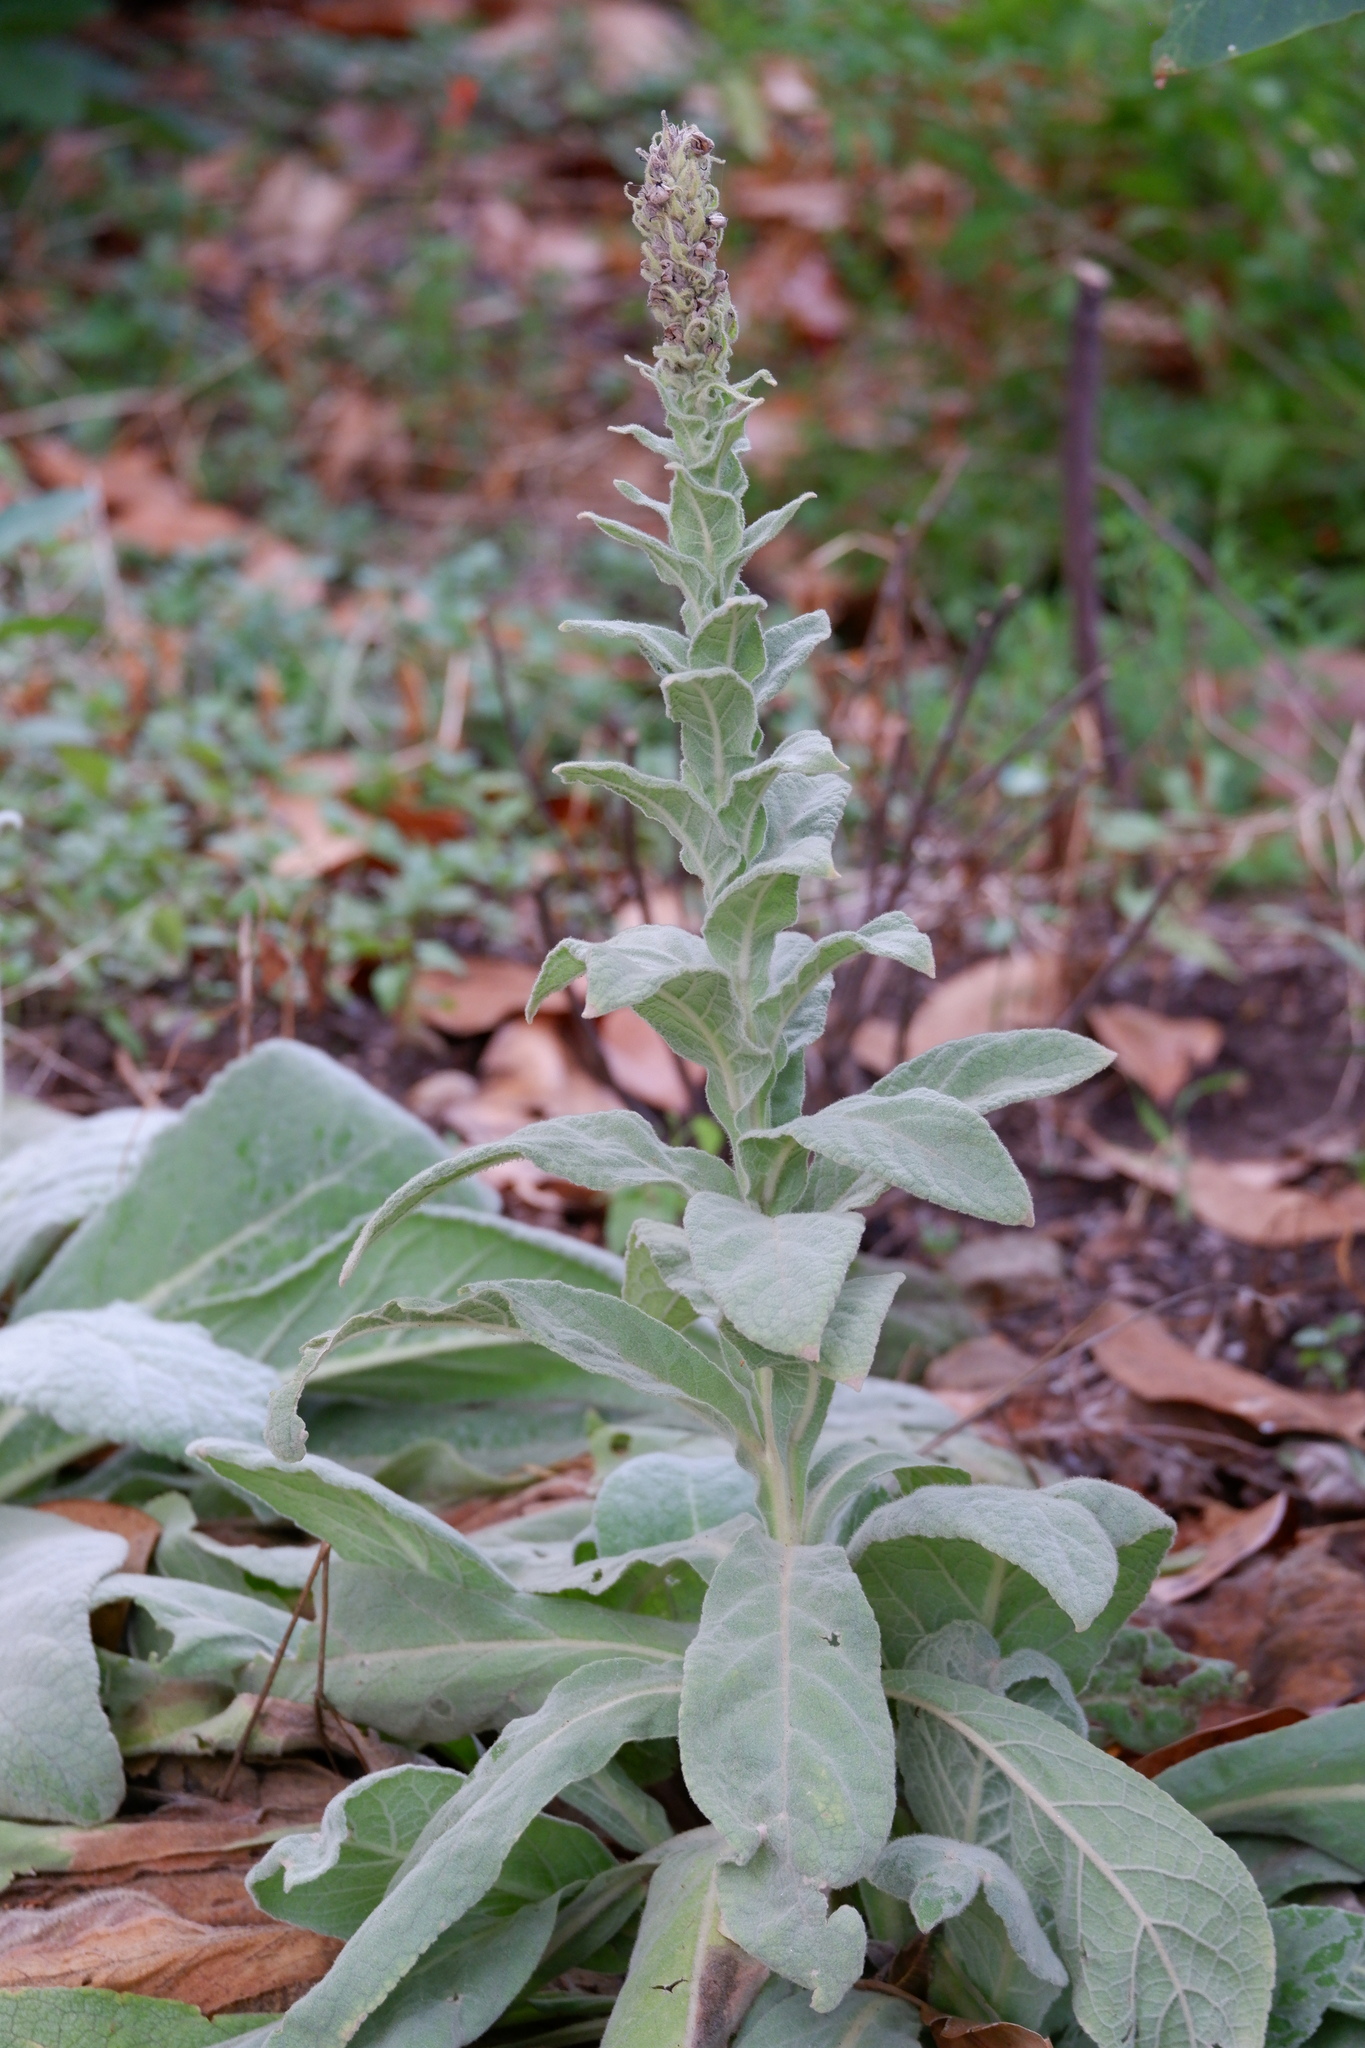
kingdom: Plantae
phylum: Tracheophyta
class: Magnoliopsida
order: Lamiales
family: Scrophulariaceae
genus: Verbascum
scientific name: Verbascum thapsus
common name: Common mullein
